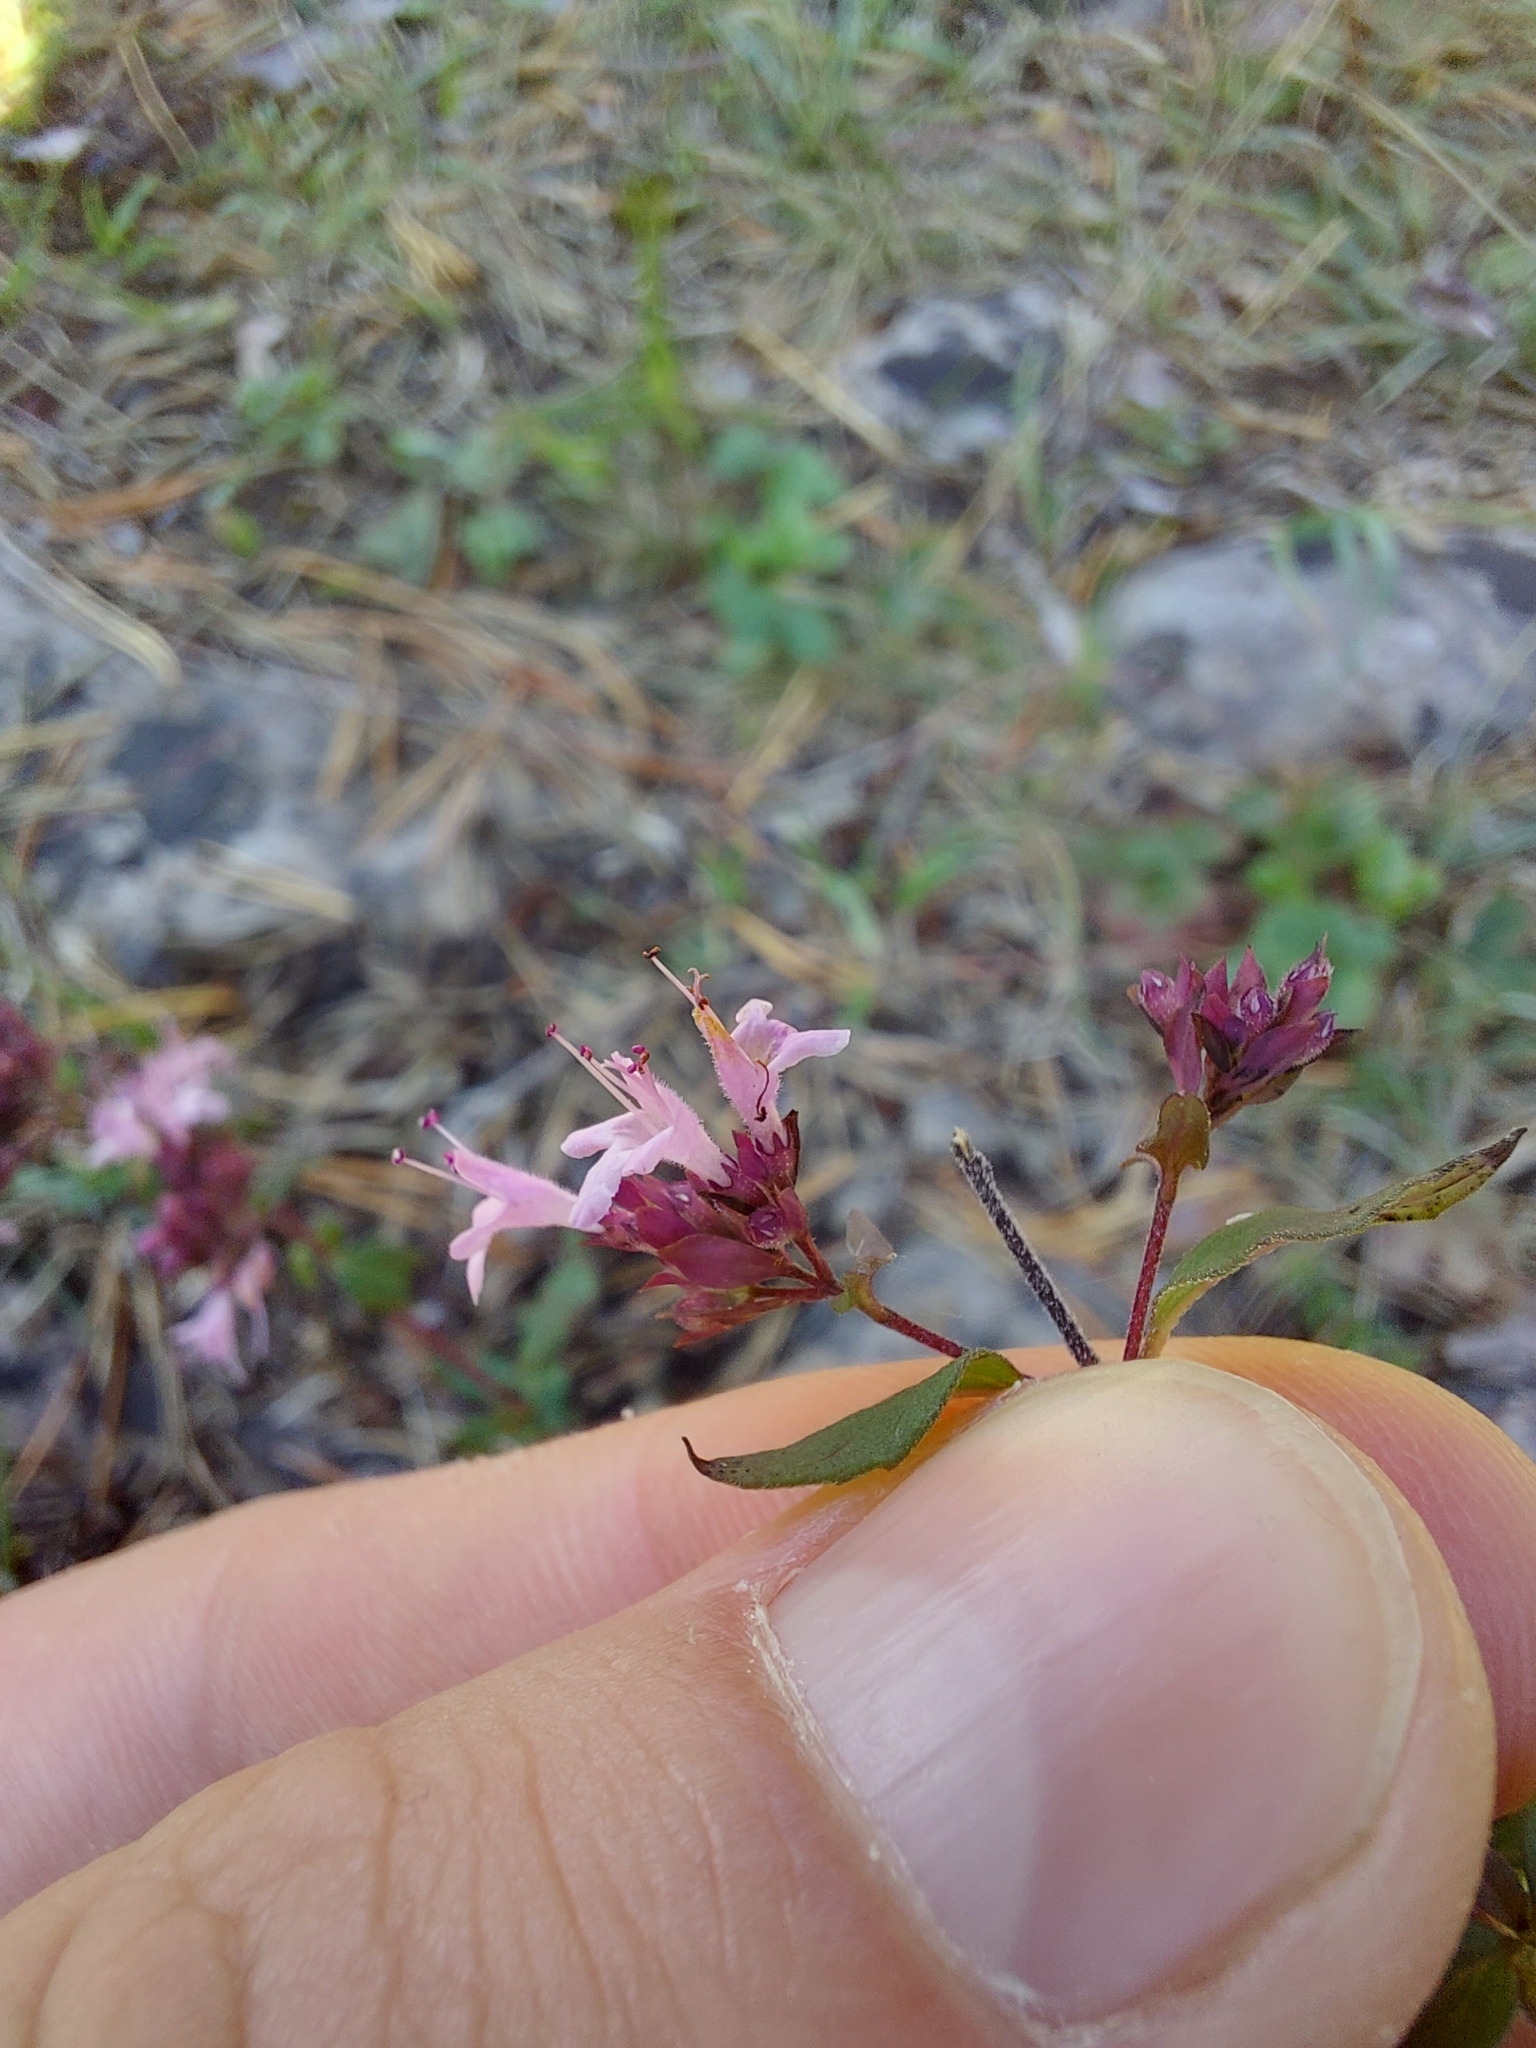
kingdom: Plantae
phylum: Tracheophyta
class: Magnoliopsida
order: Lamiales
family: Lamiaceae
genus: Origanum
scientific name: Origanum vulgare
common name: Wild marjoram
